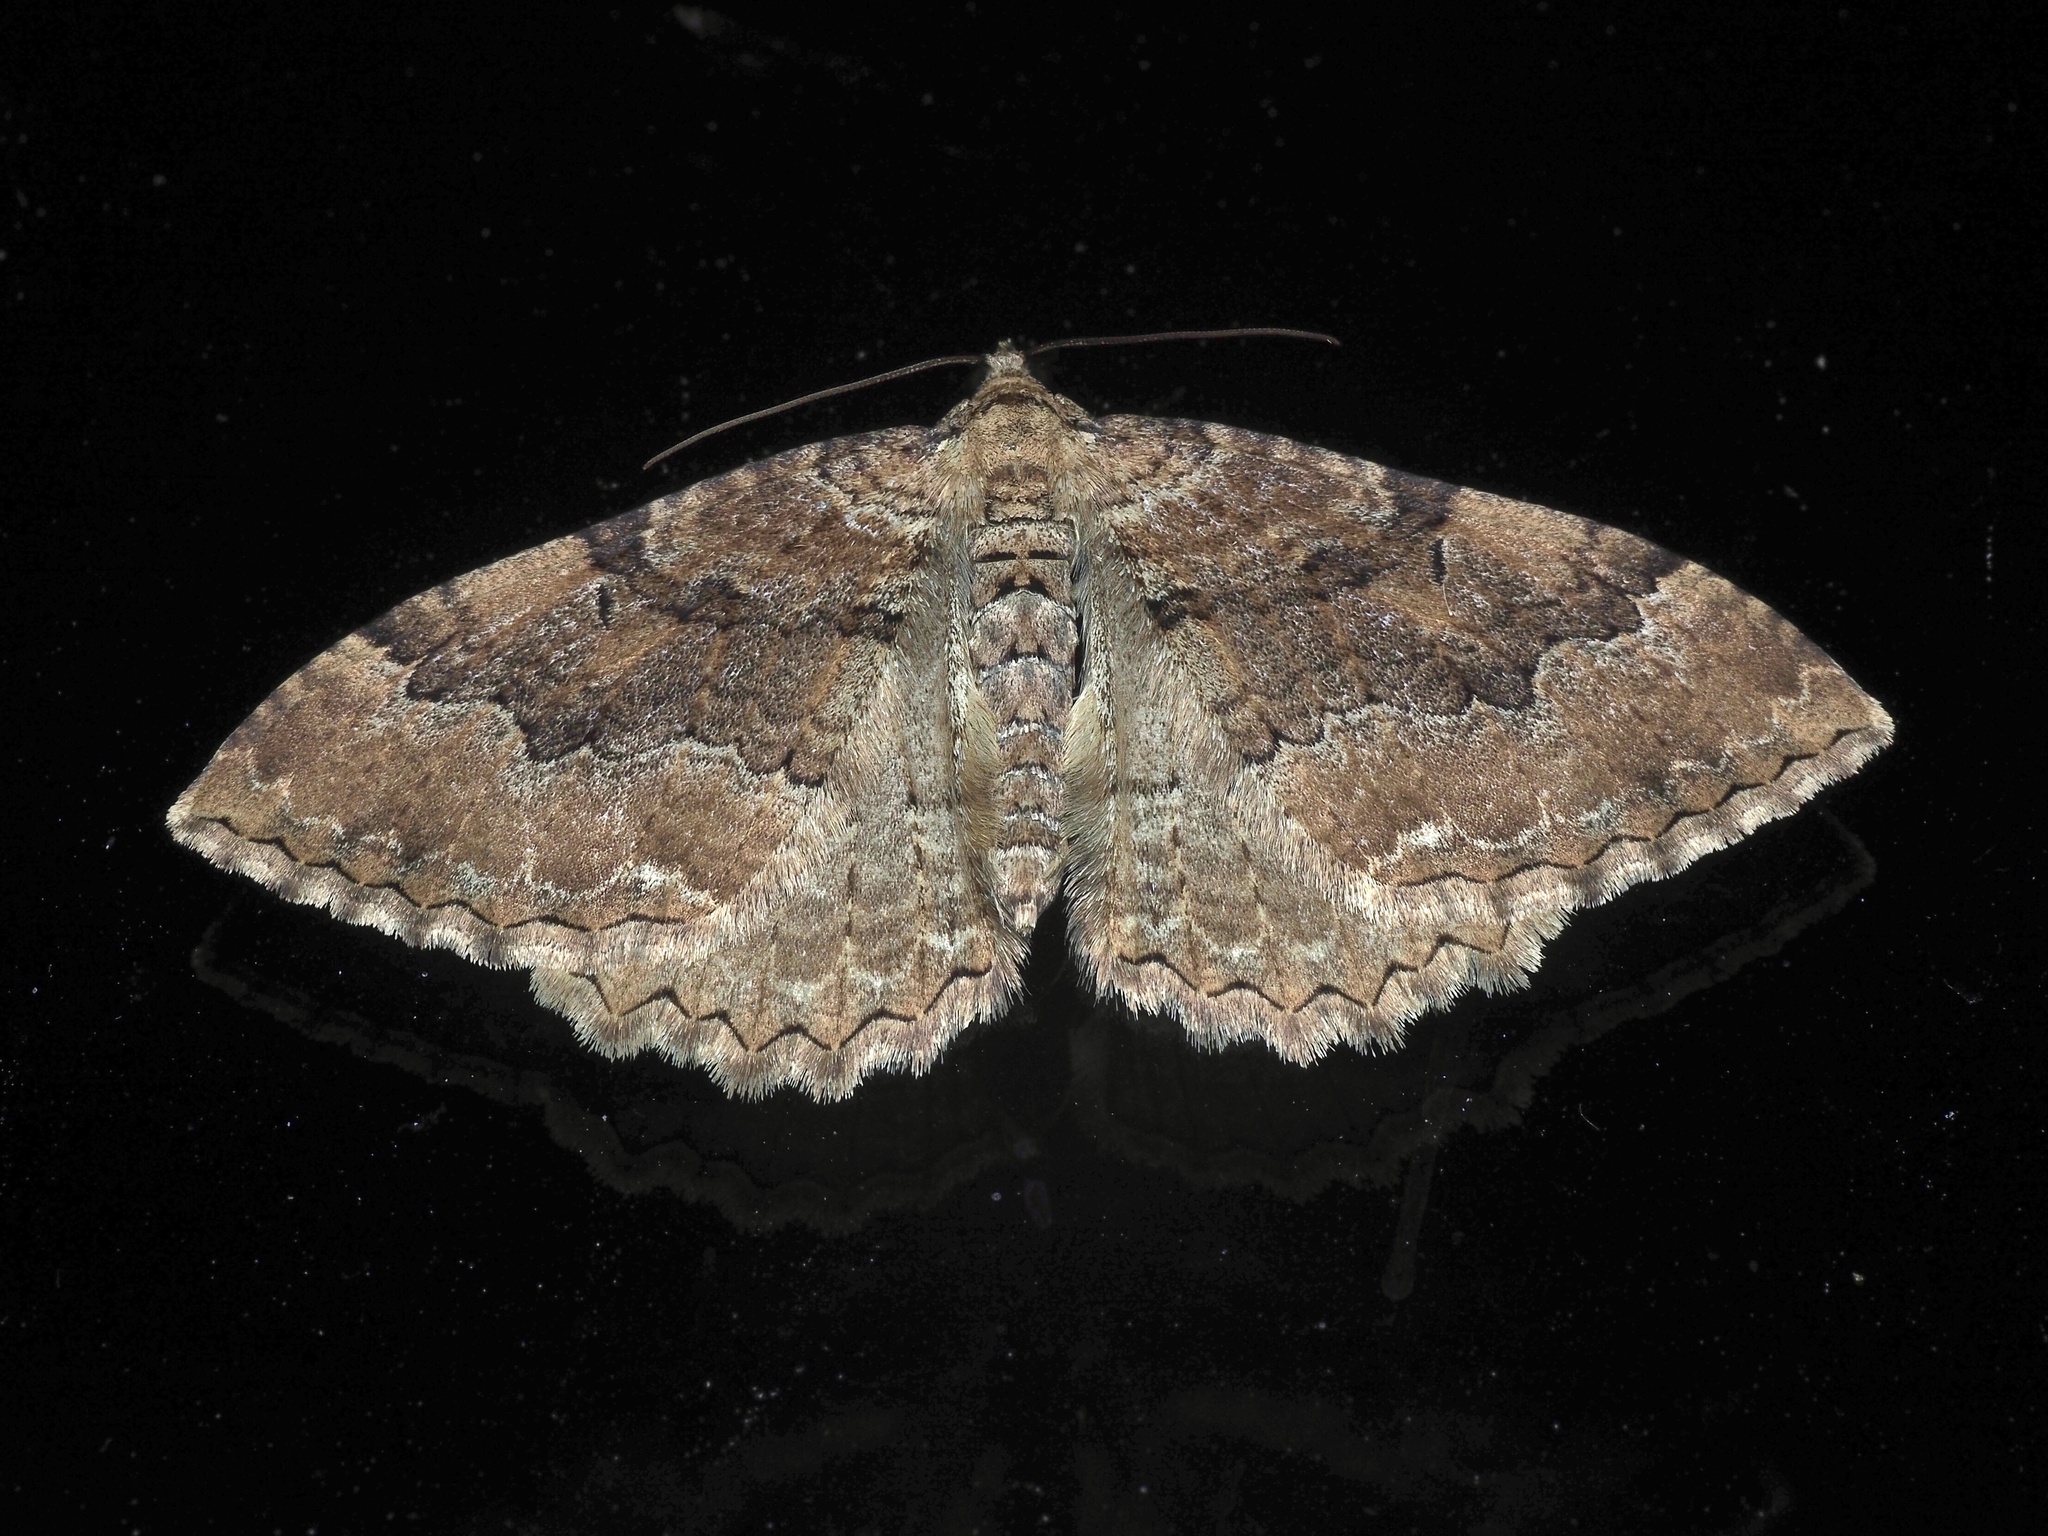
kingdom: Animalia
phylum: Arthropoda
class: Insecta
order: Lepidoptera
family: Geometridae
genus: Rheumaptera
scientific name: Rheumaptera Hydria cervinalis
